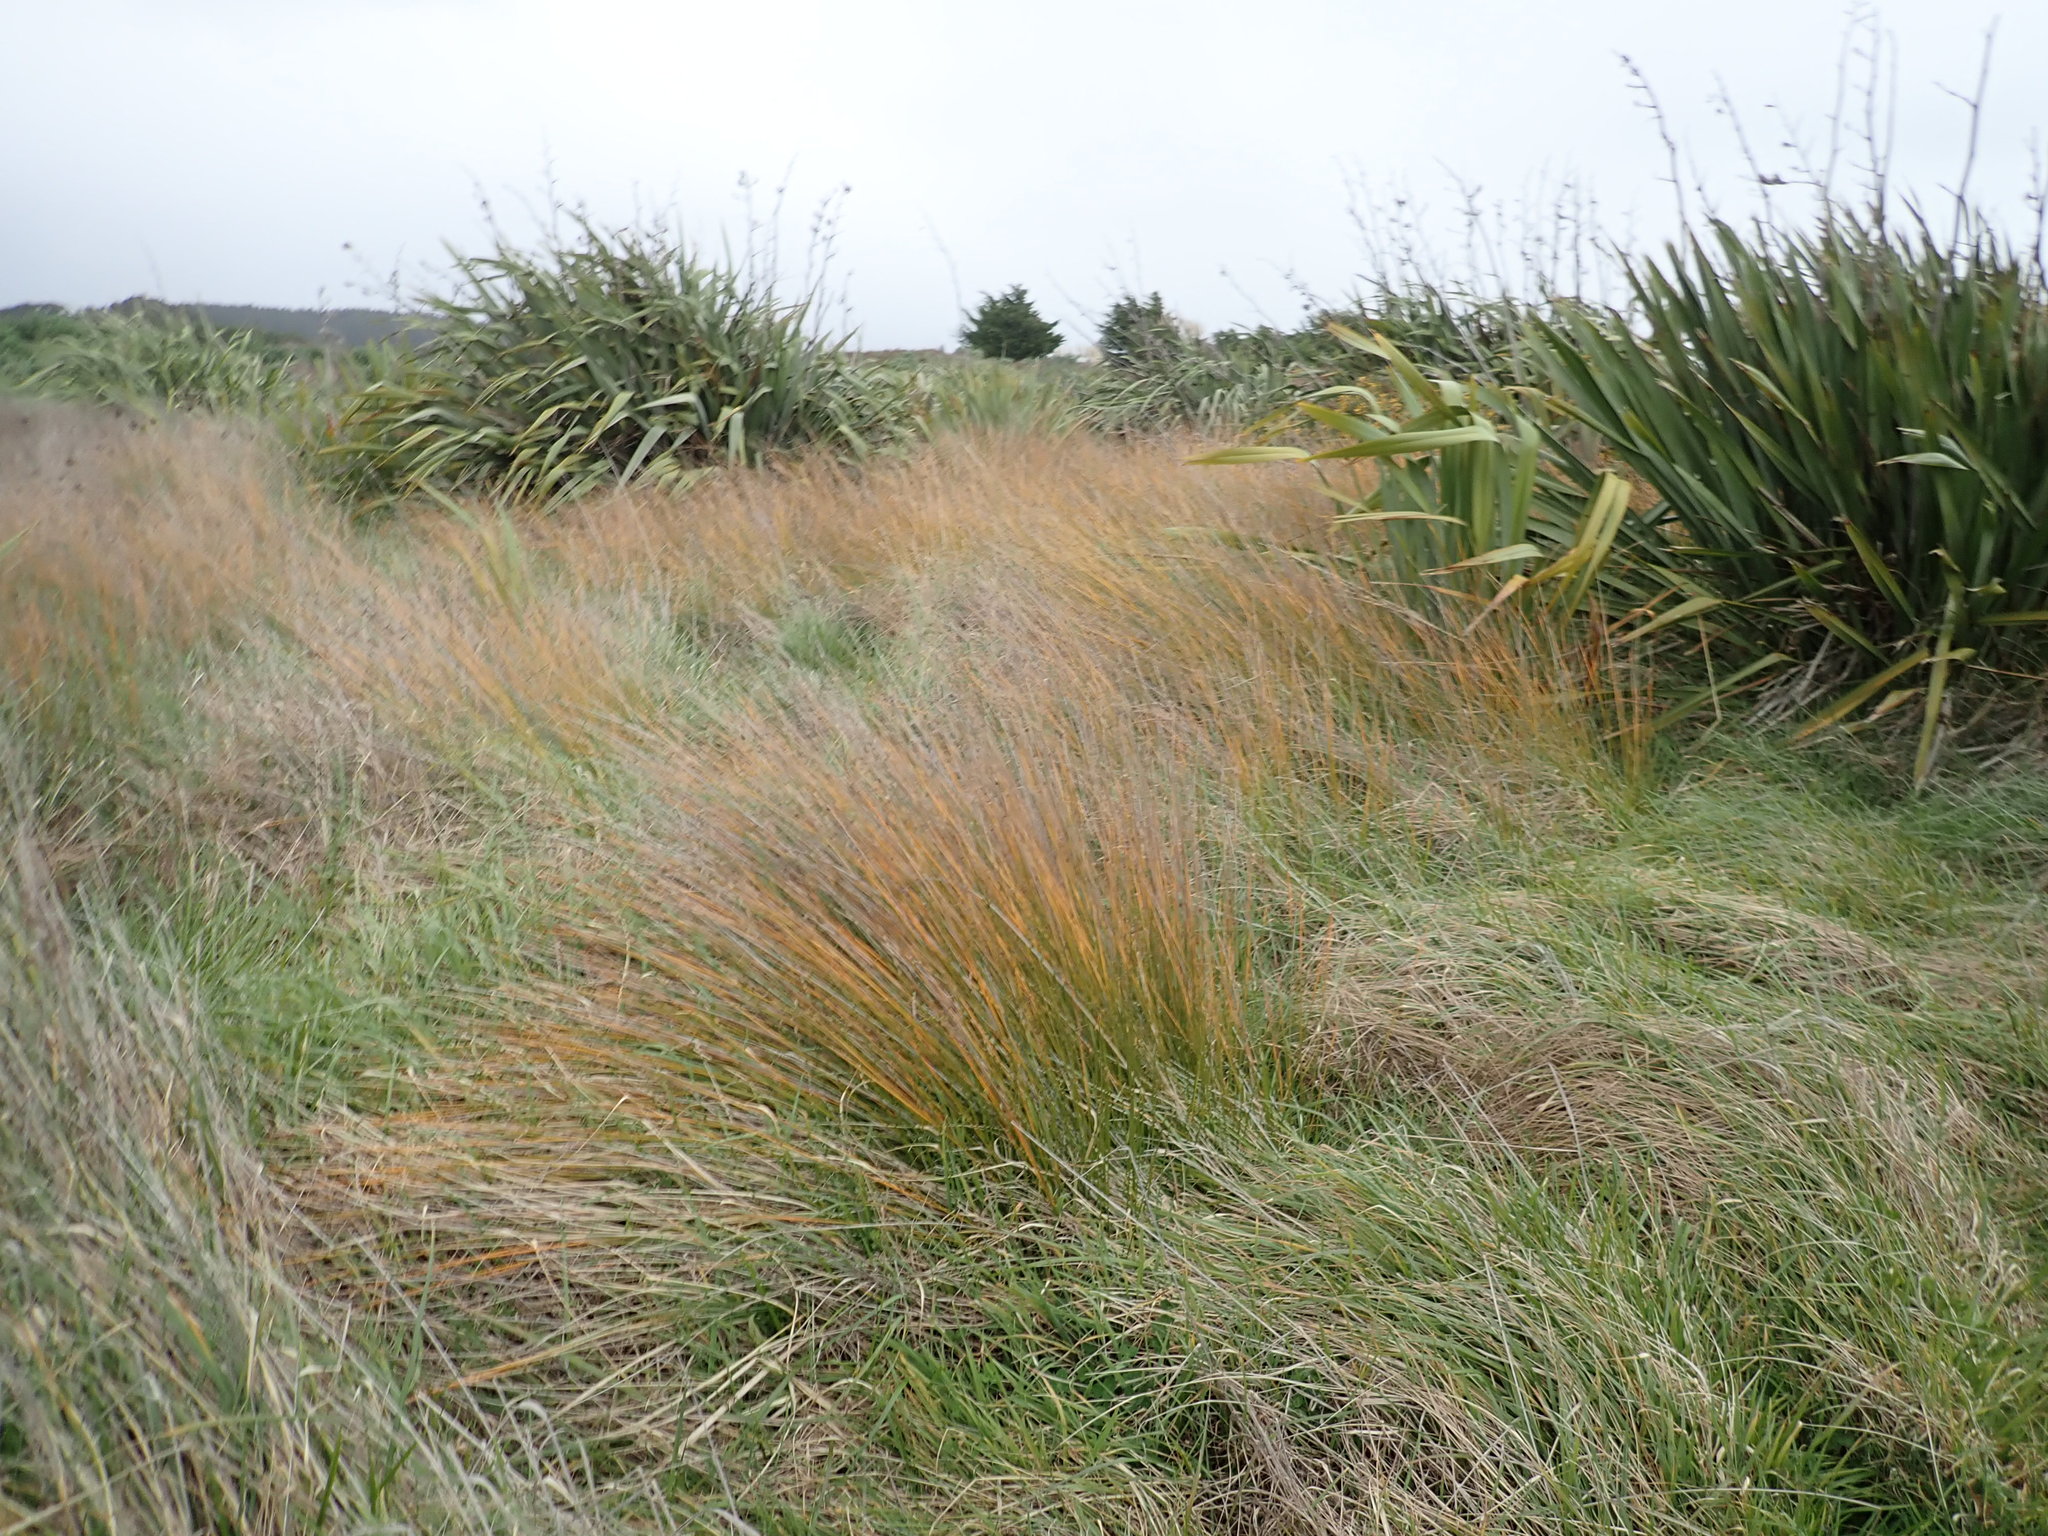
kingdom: Plantae
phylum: Tracheophyta
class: Liliopsida
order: Poales
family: Cyperaceae
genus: Ficinia
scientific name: Ficinia nodosa
